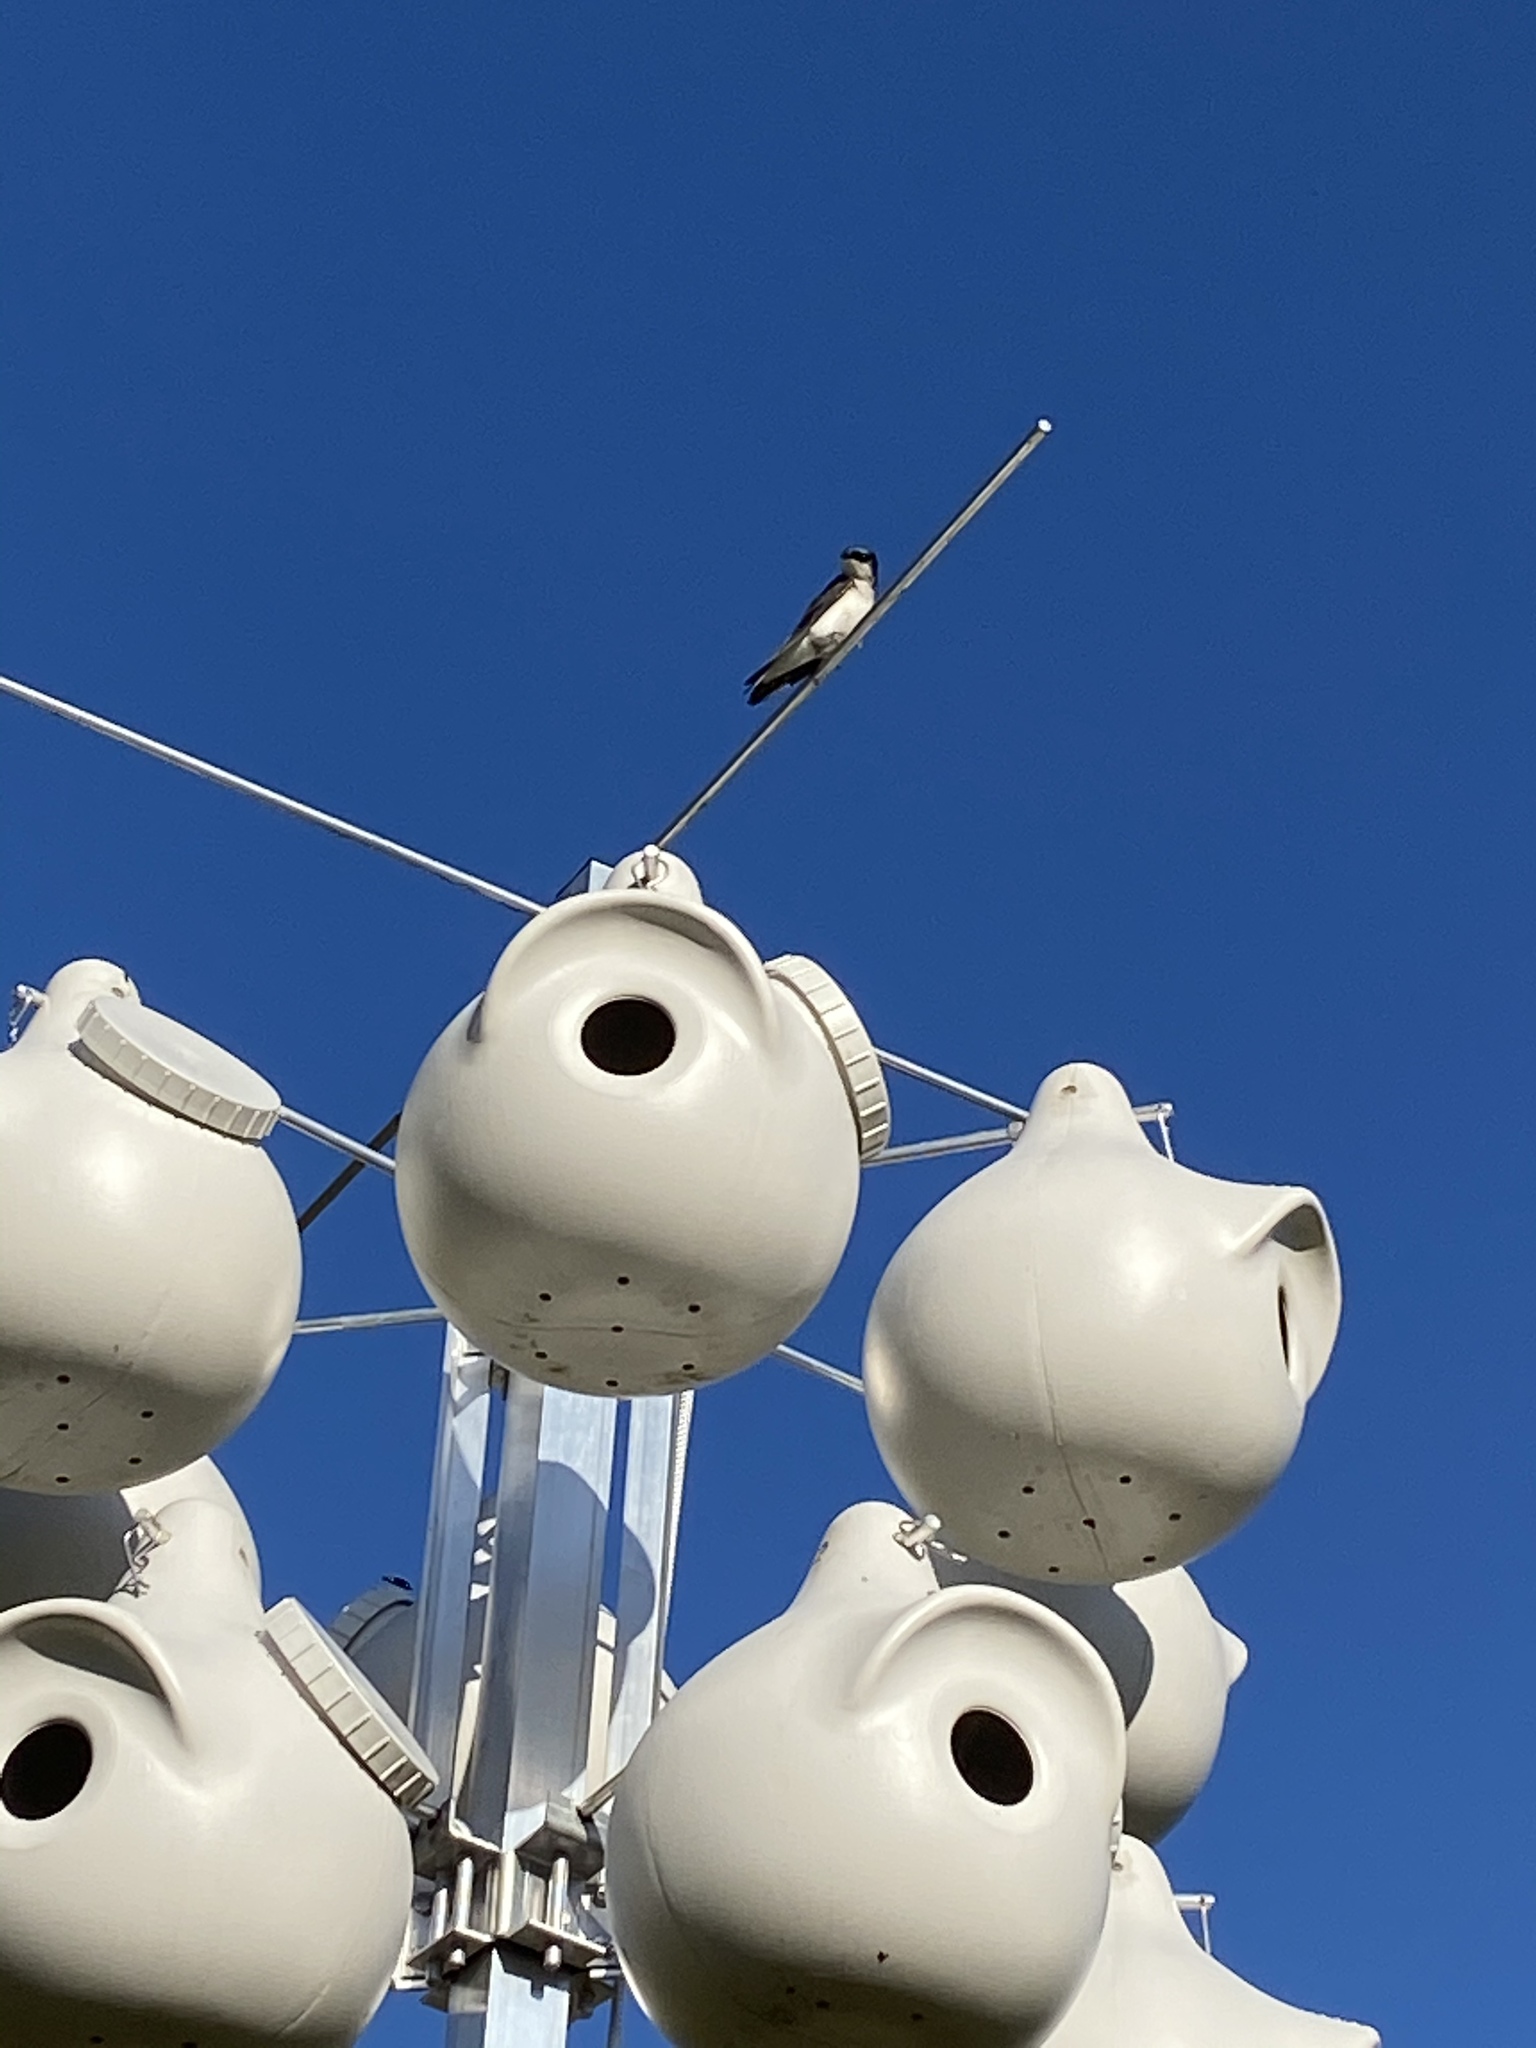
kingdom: Animalia
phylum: Chordata
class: Aves
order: Passeriformes
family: Hirundinidae
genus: Tachycineta
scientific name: Tachycineta bicolor
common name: Tree swallow
